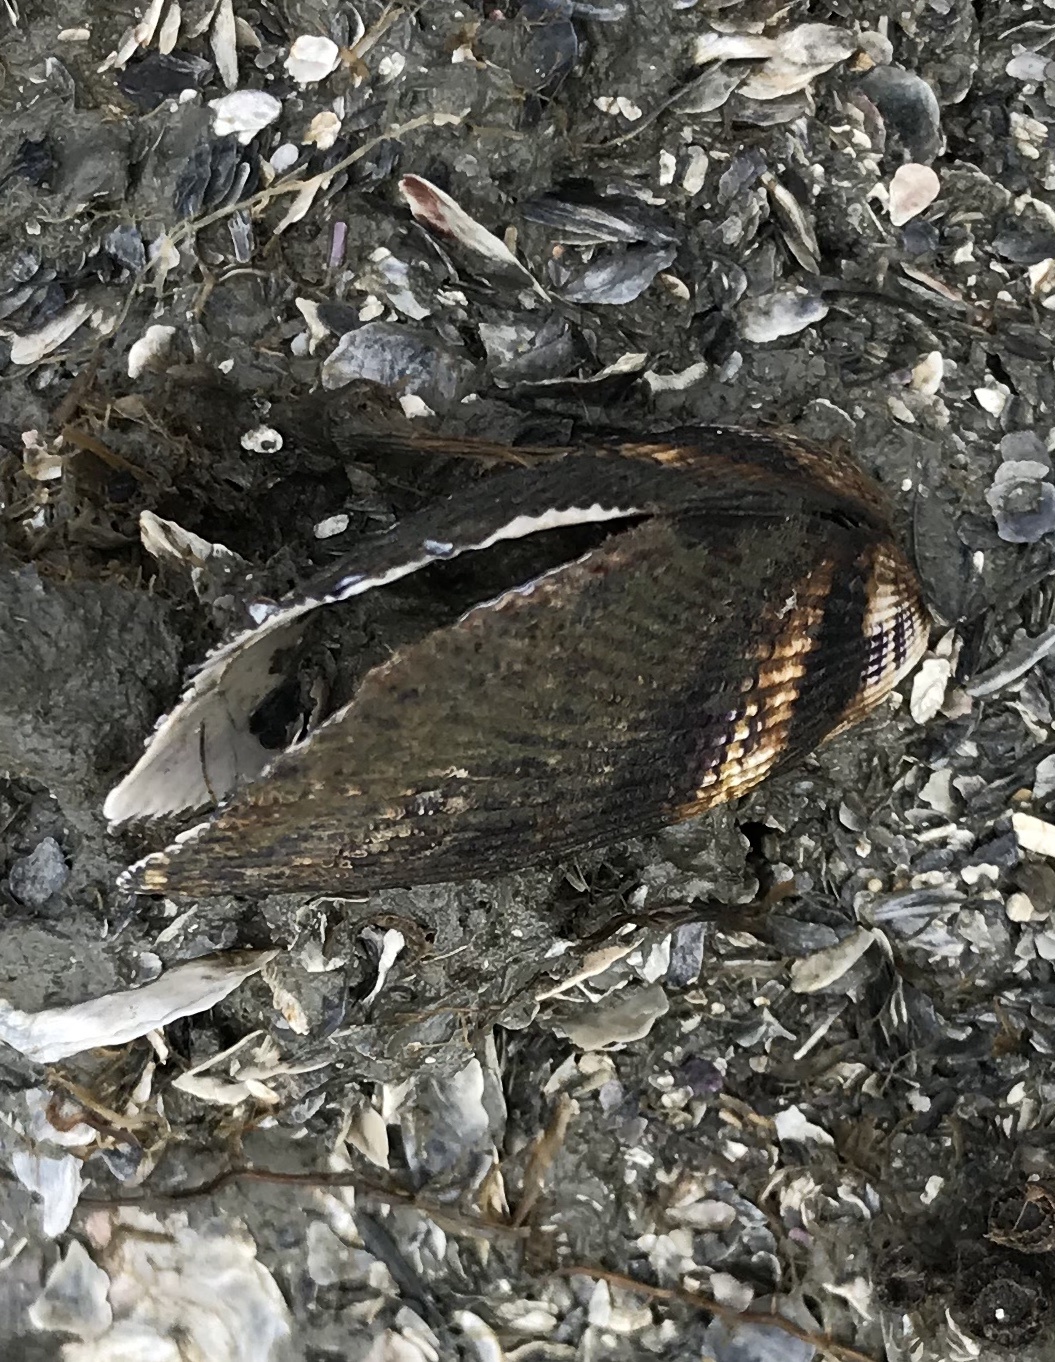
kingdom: Animalia
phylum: Mollusca
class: Bivalvia
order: Mytilida
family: Mytilidae
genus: Geukensia
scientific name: Geukensia demissa
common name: Ribbed mussel
